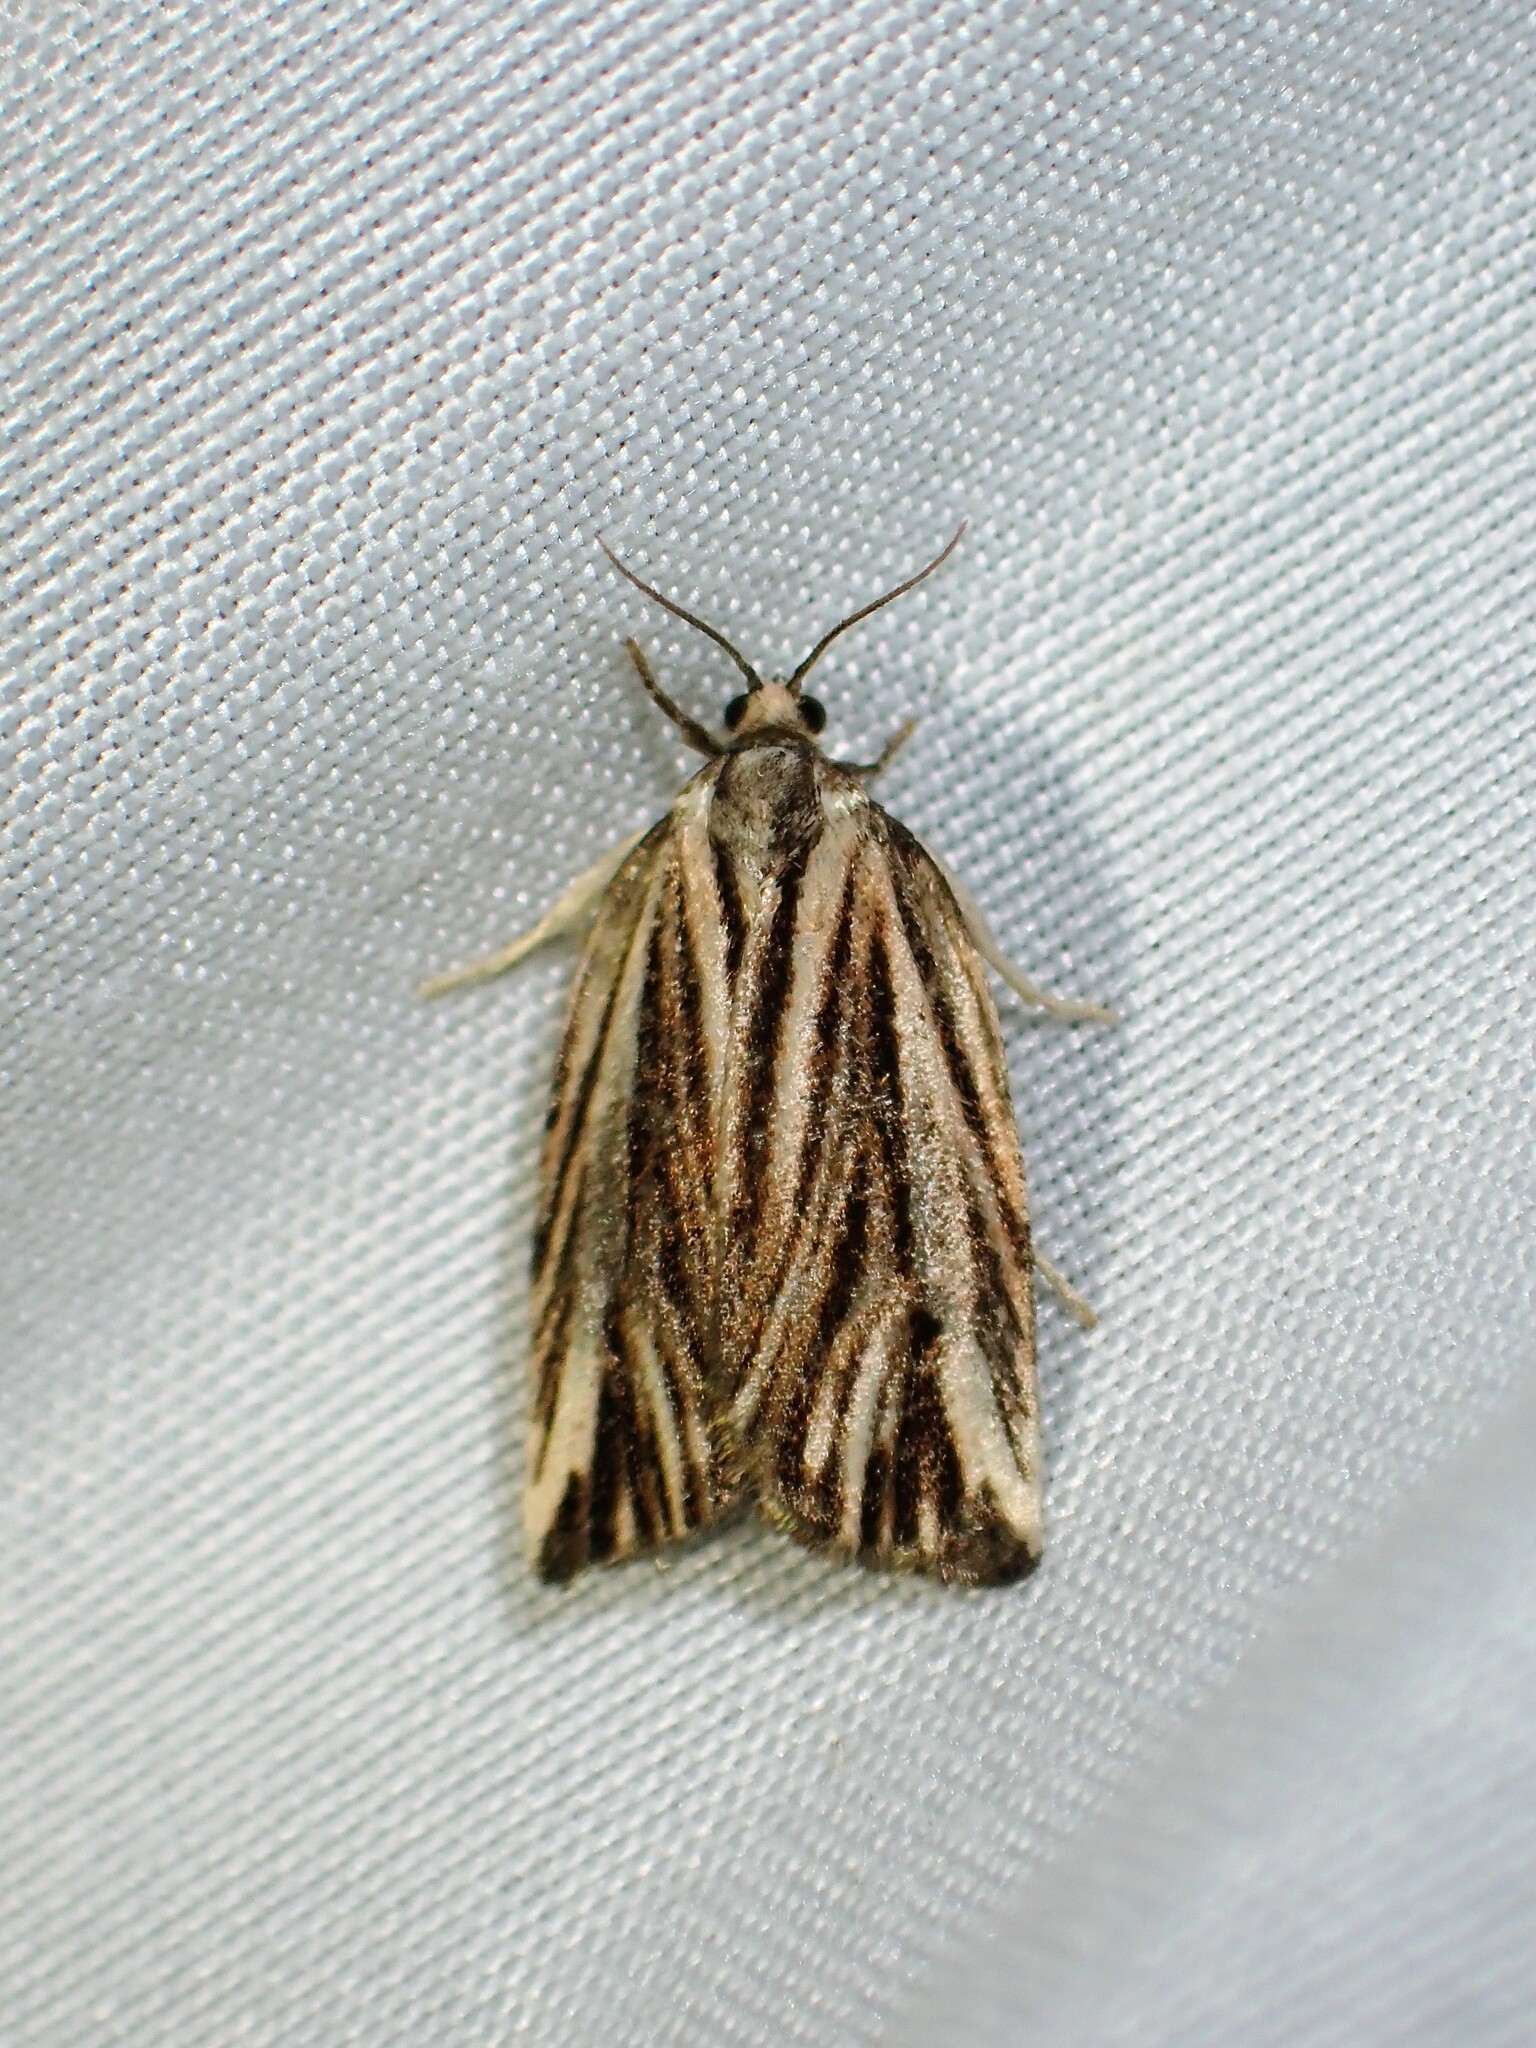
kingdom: Animalia
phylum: Arthropoda
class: Insecta
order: Lepidoptera
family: Tortricidae
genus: Archips
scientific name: Archips strianus
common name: Striated tortrix moth
